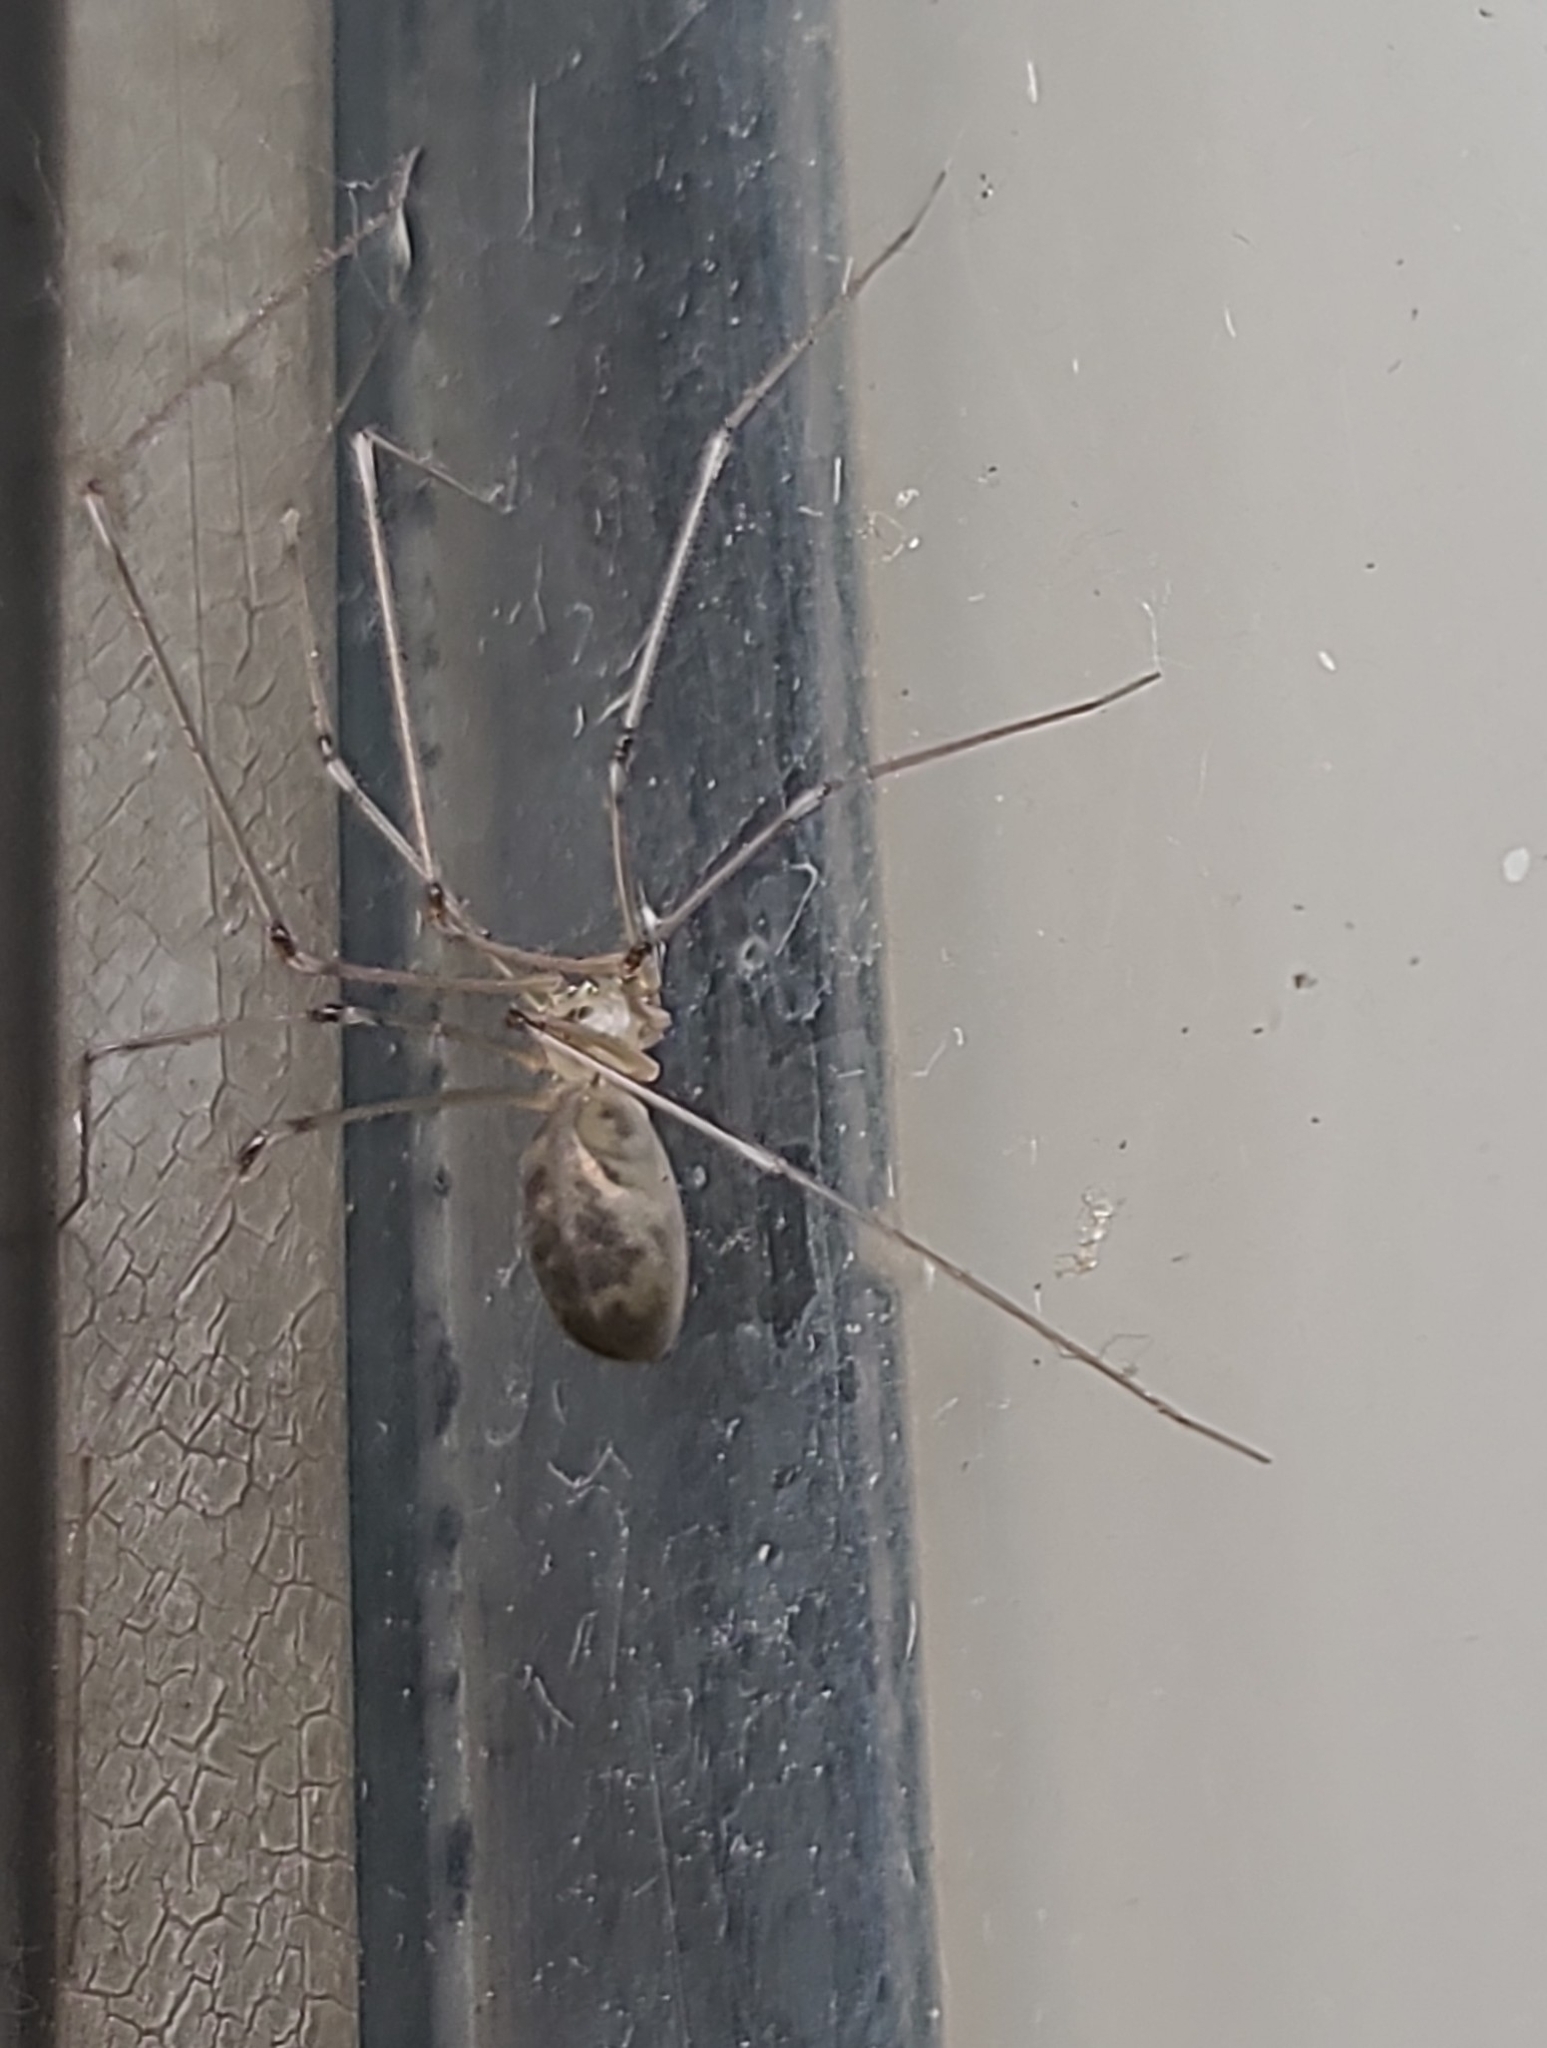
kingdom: Animalia
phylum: Arthropoda
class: Arachnida
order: Araneae
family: Pholcidae
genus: Pholcus
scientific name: Pholcus phalangioides
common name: Longbodied cellar spider
